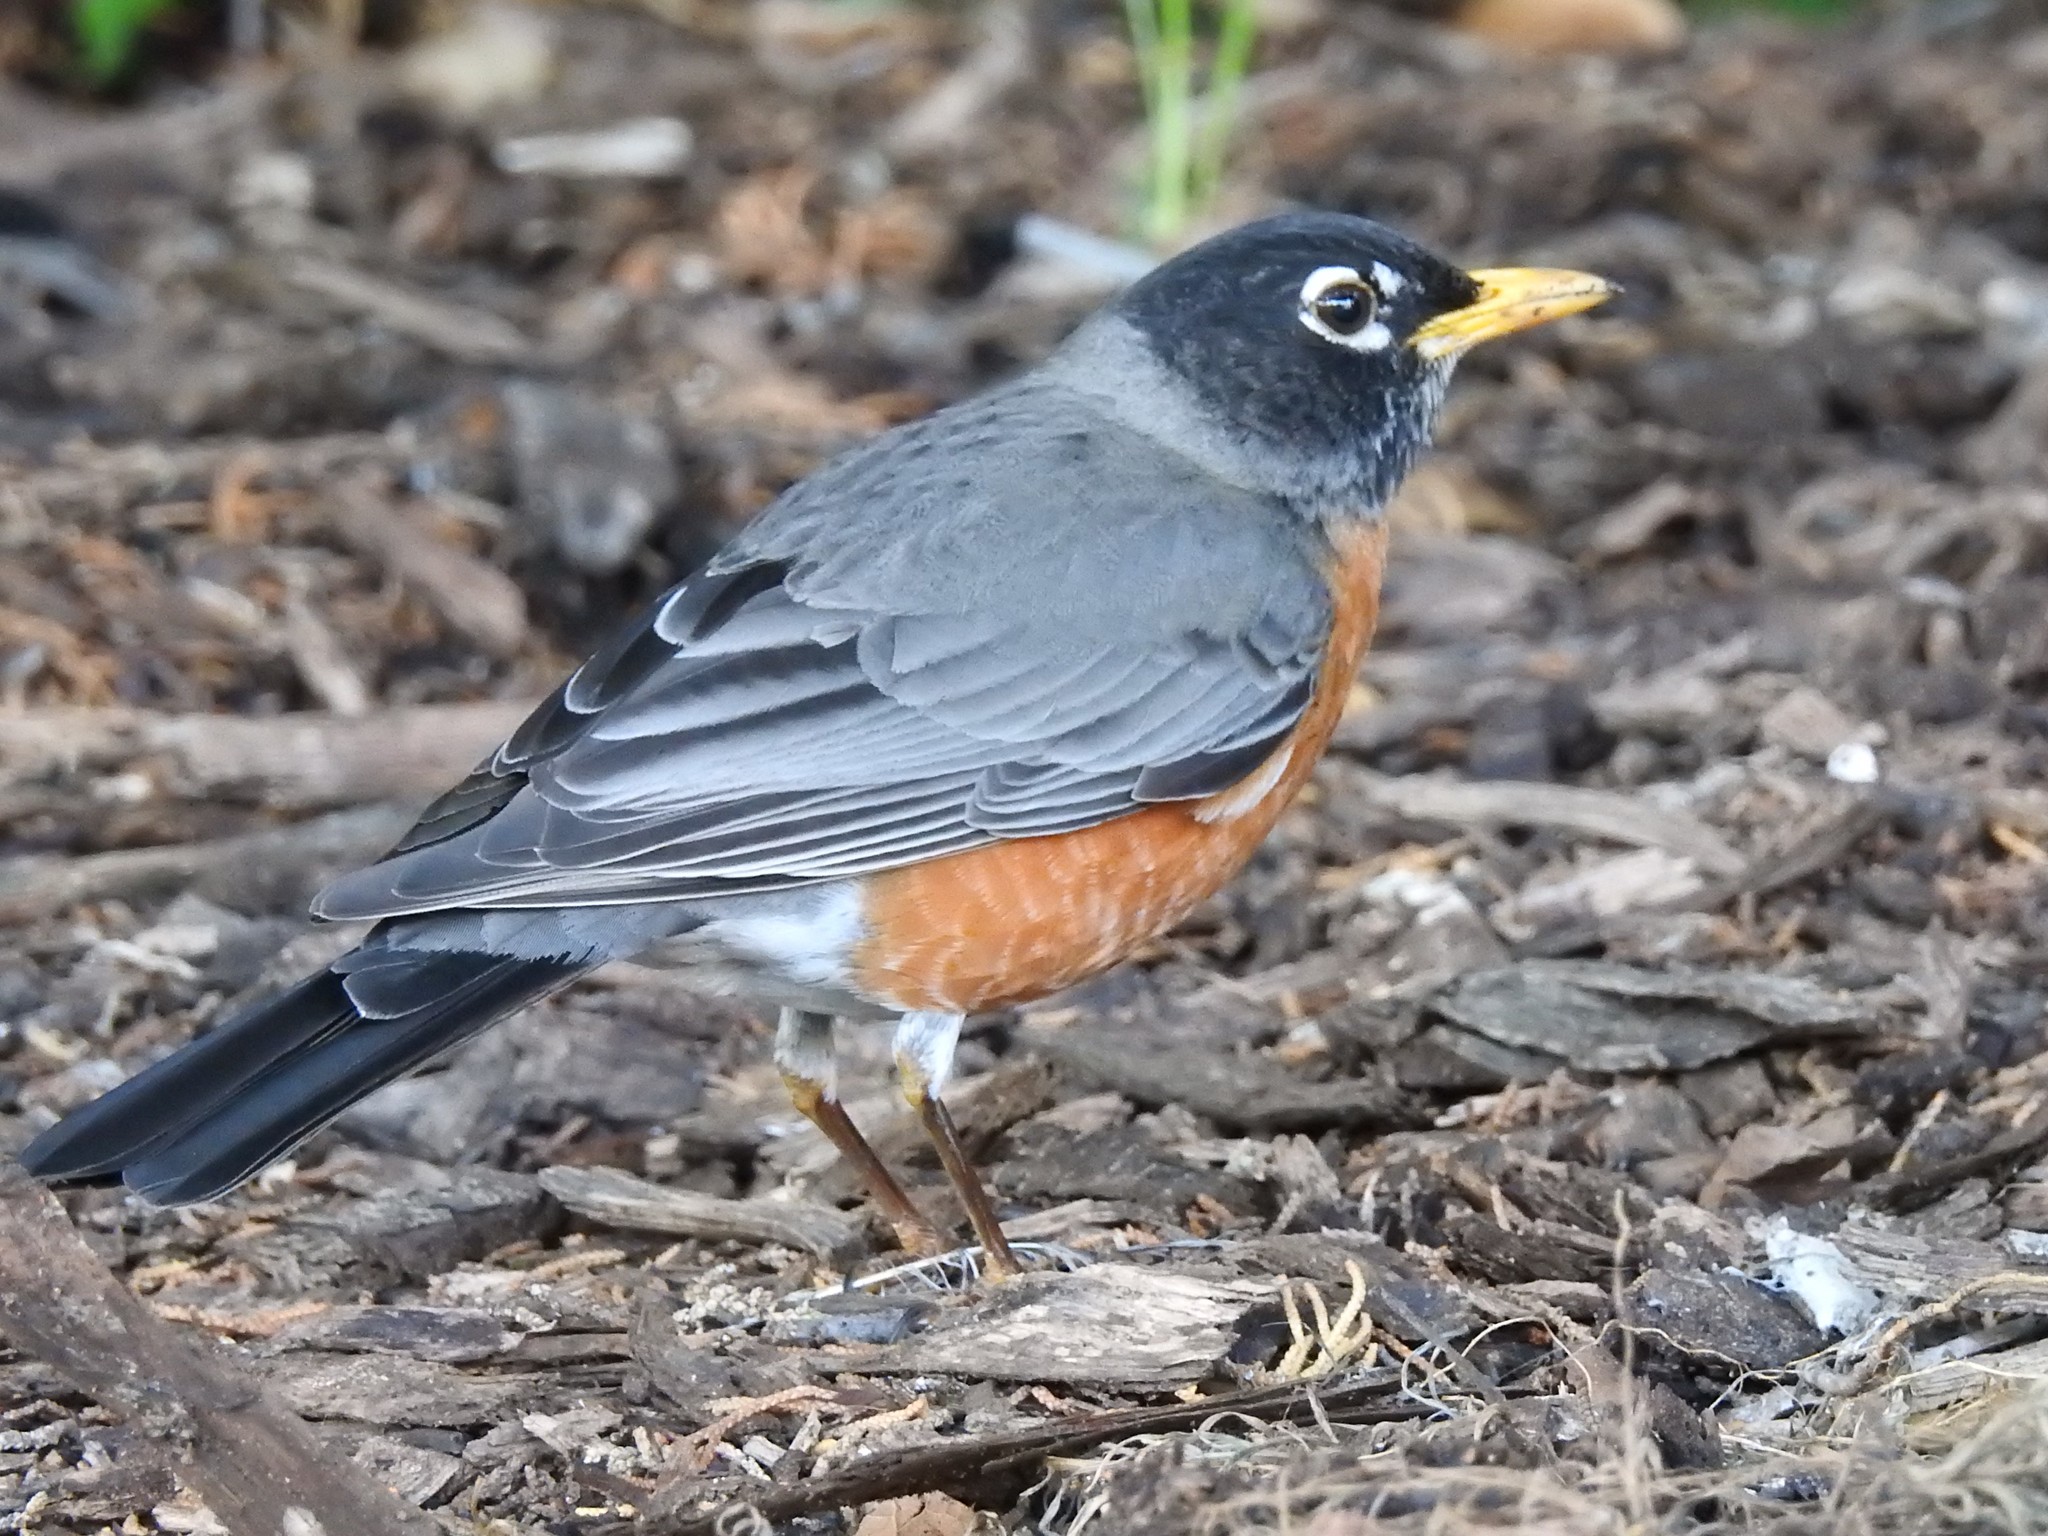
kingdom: Animalia
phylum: Chordata
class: Aves
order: Passeriformes
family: Turdidae
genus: Turdus
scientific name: Turdus migratorius
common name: American robin
